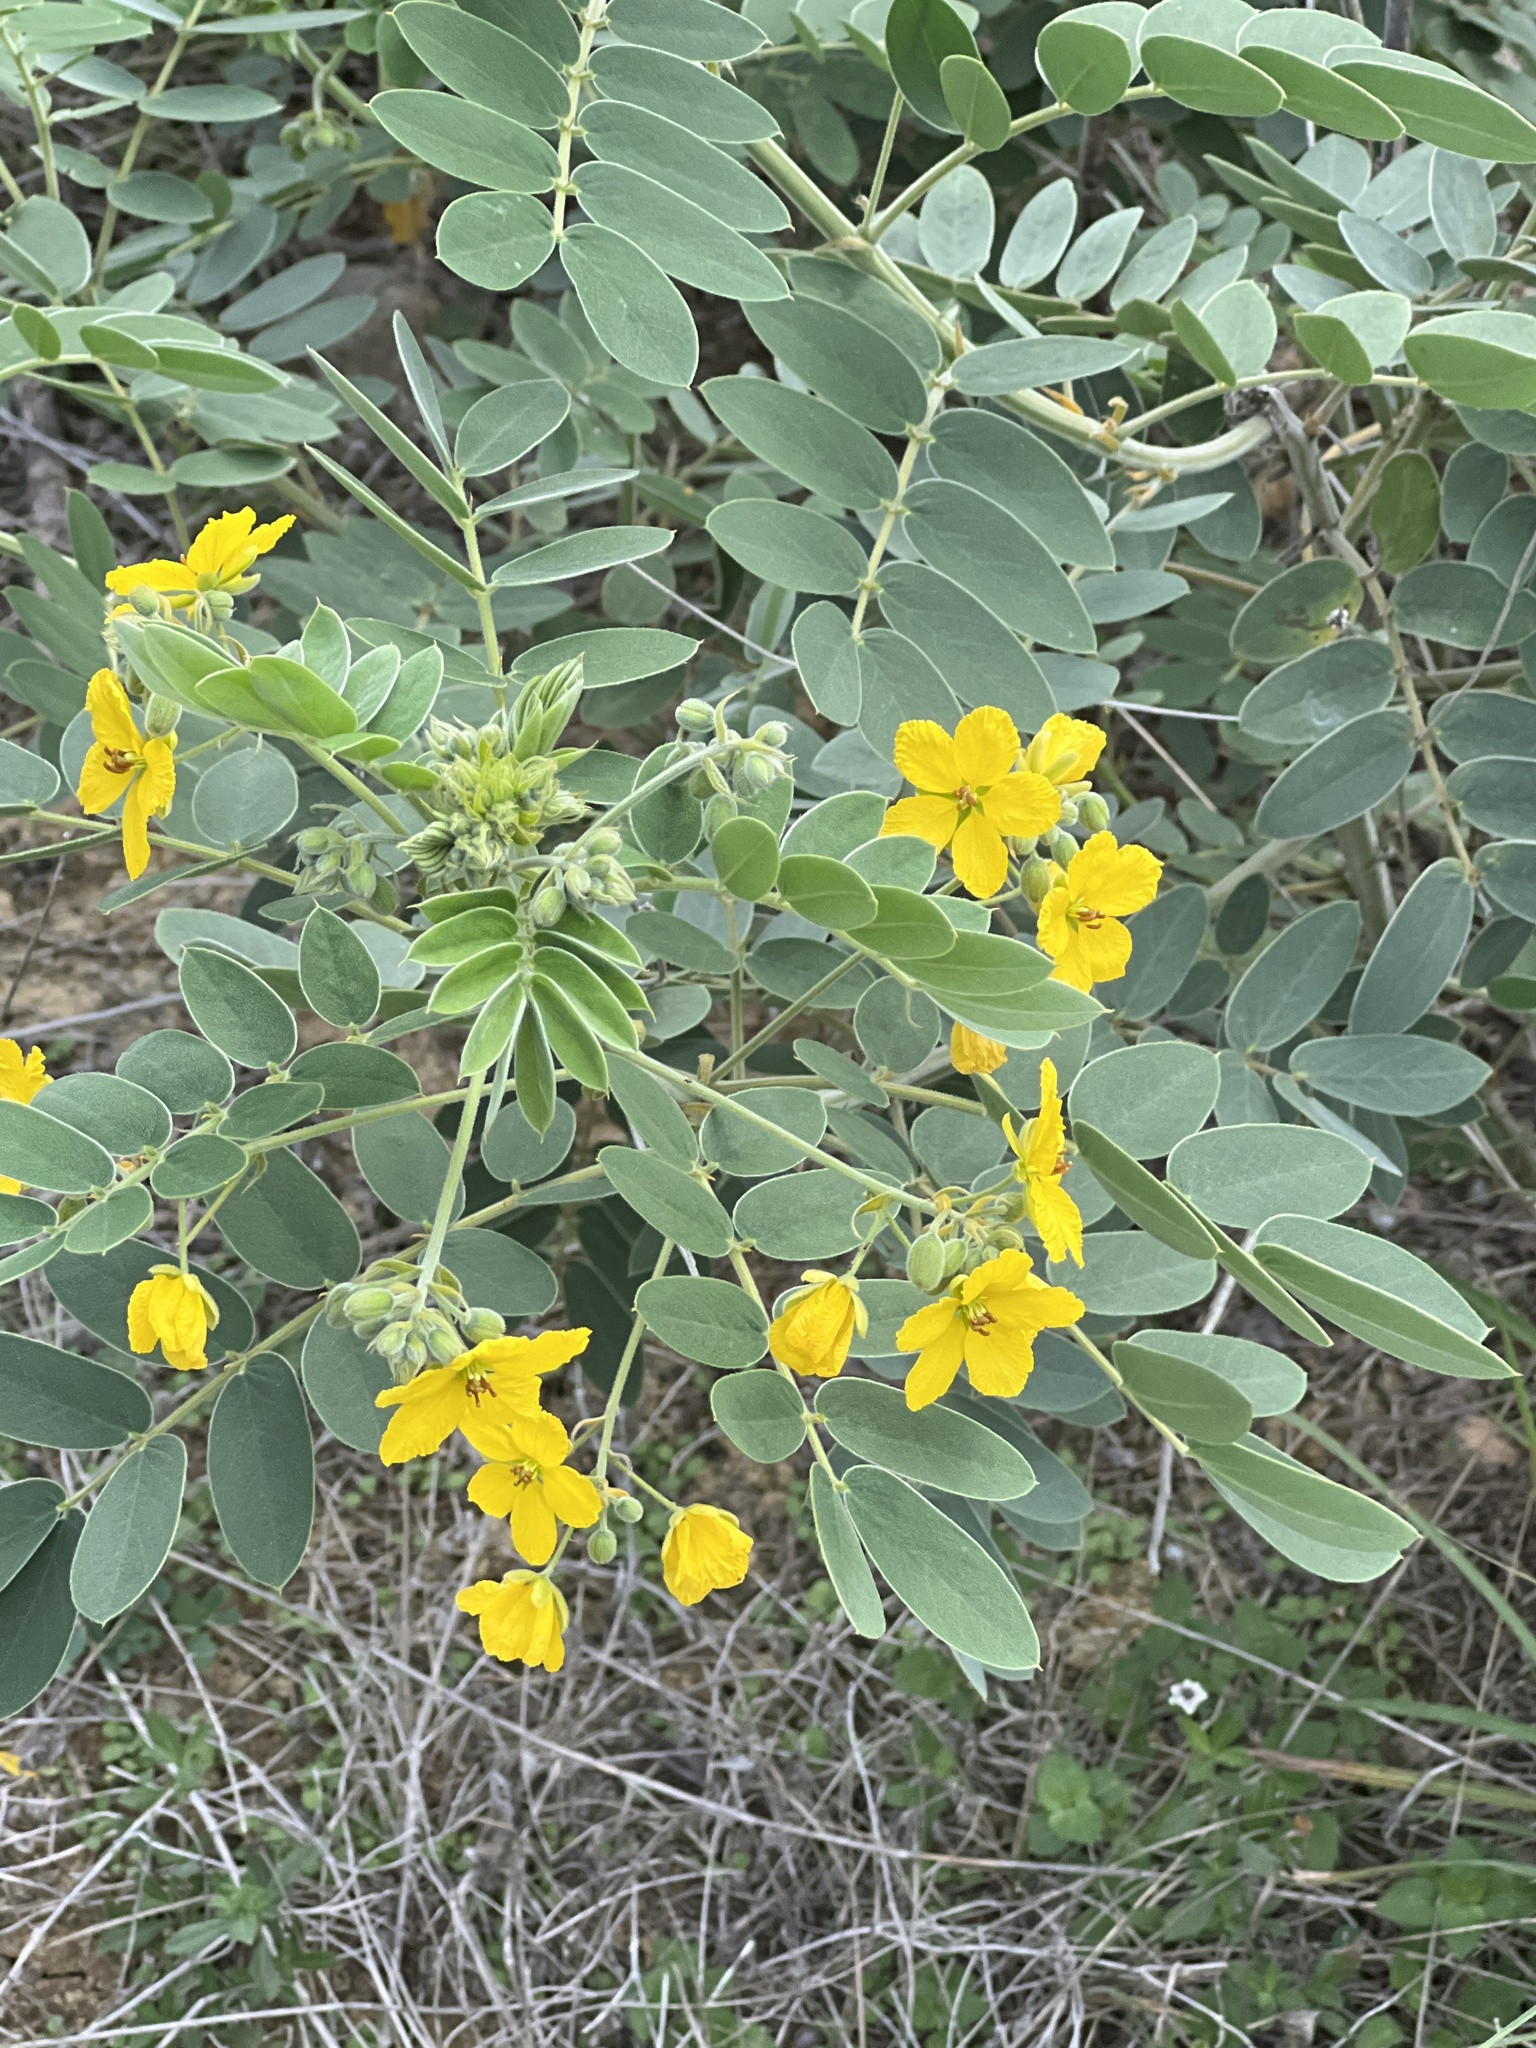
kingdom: Plantae
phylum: Tracheophyta
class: Magnoliopsida
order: Fabales
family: Fabaceae
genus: Senna
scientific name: Senna lindheimeriana
